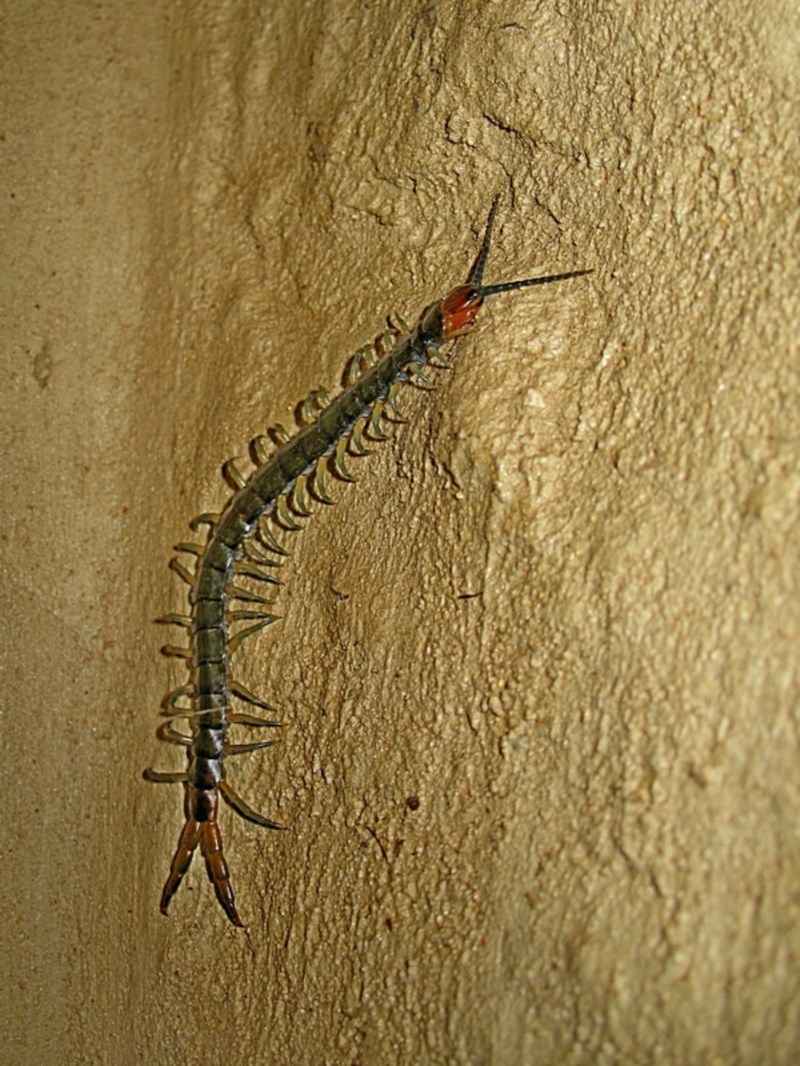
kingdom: Animalia
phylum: Arthropoda
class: Chilopoda
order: Scolopendromorpha
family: Scolopendridae
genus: Cormocephalus
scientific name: Cormocephalus westwoodi
